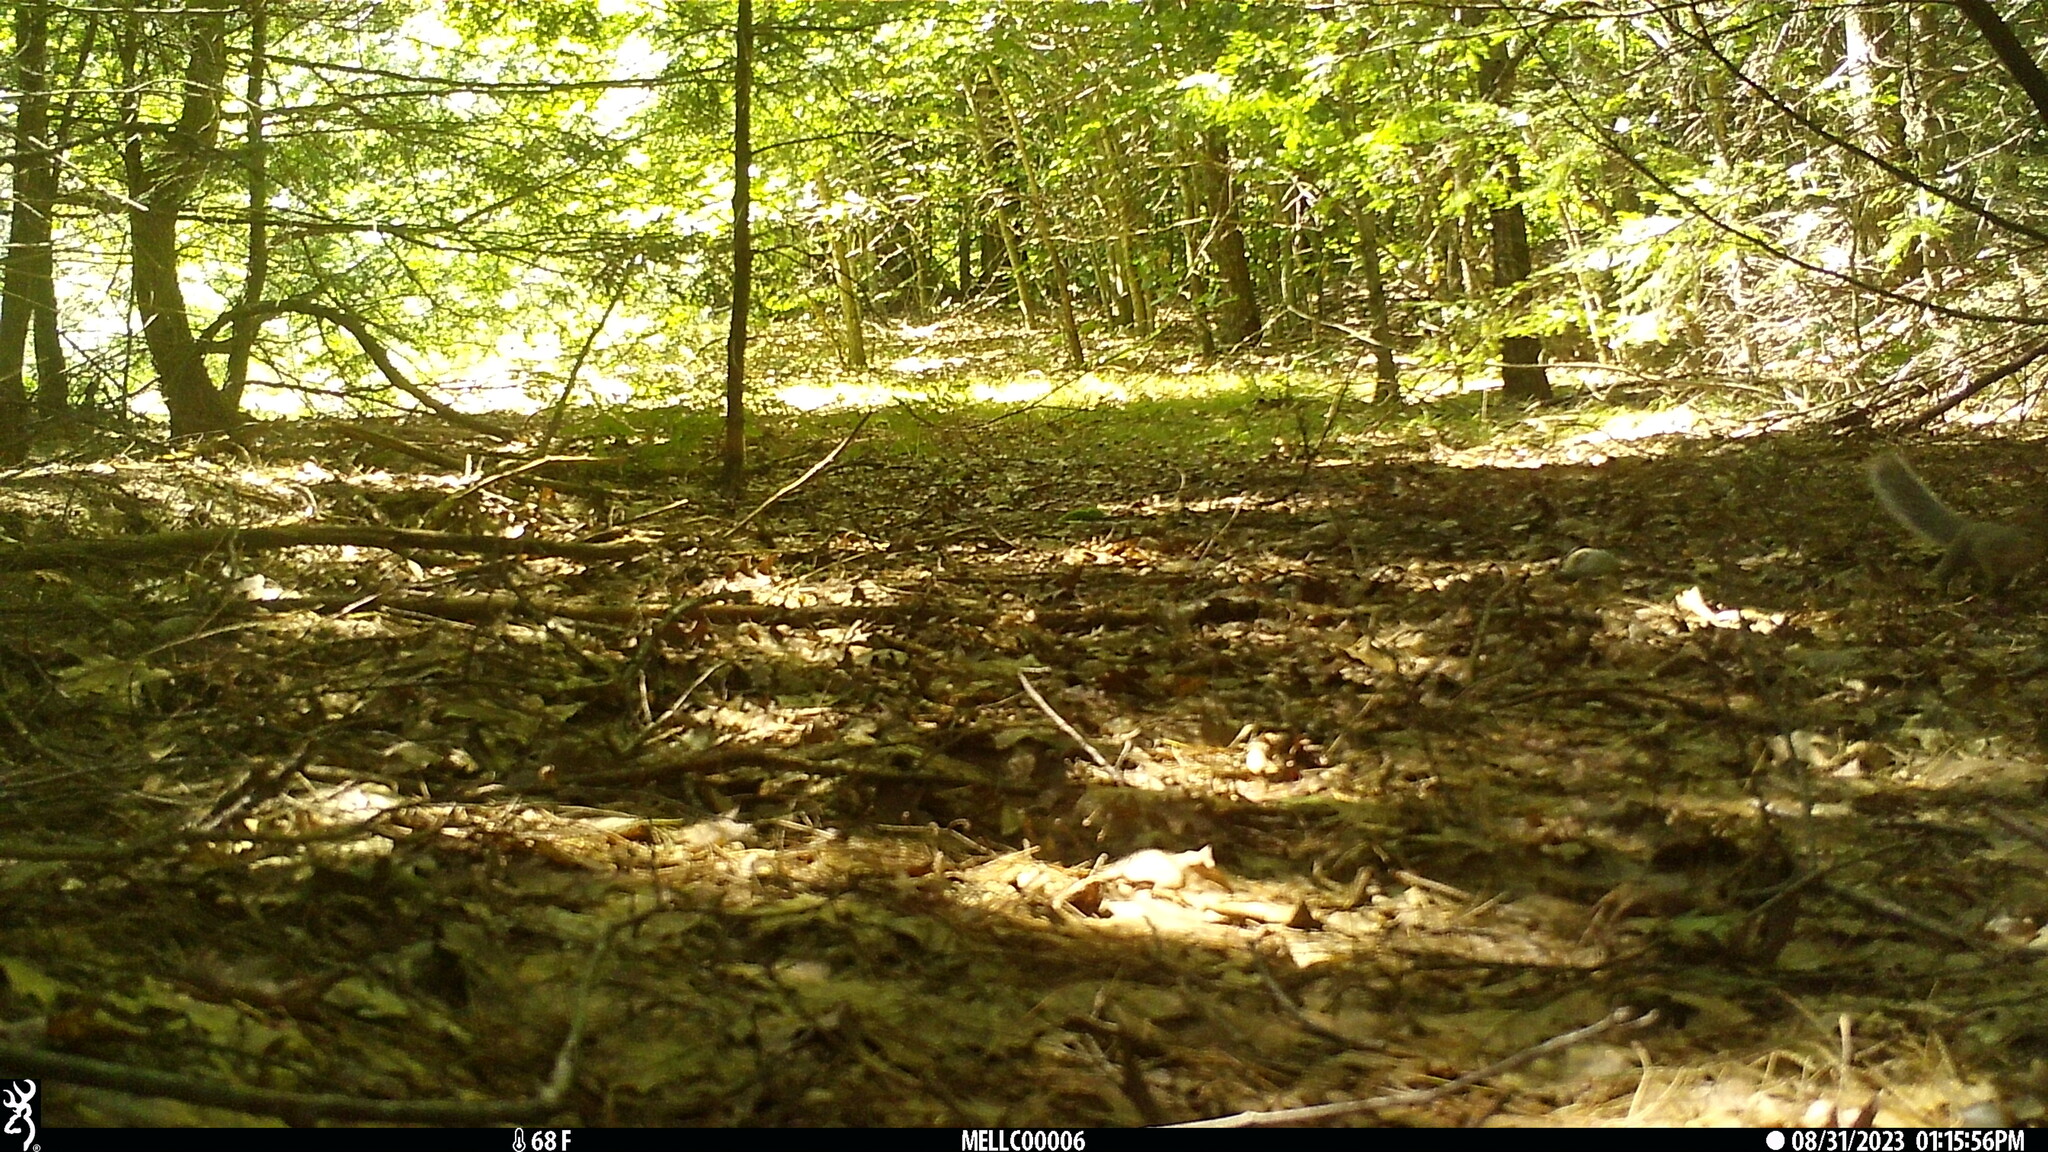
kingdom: Animalia
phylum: Chordata
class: Mammalia
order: Rodentia
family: Sciuridae
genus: Sciurus
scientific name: Sciurus carolinensis
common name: Eastern gray squirrel
